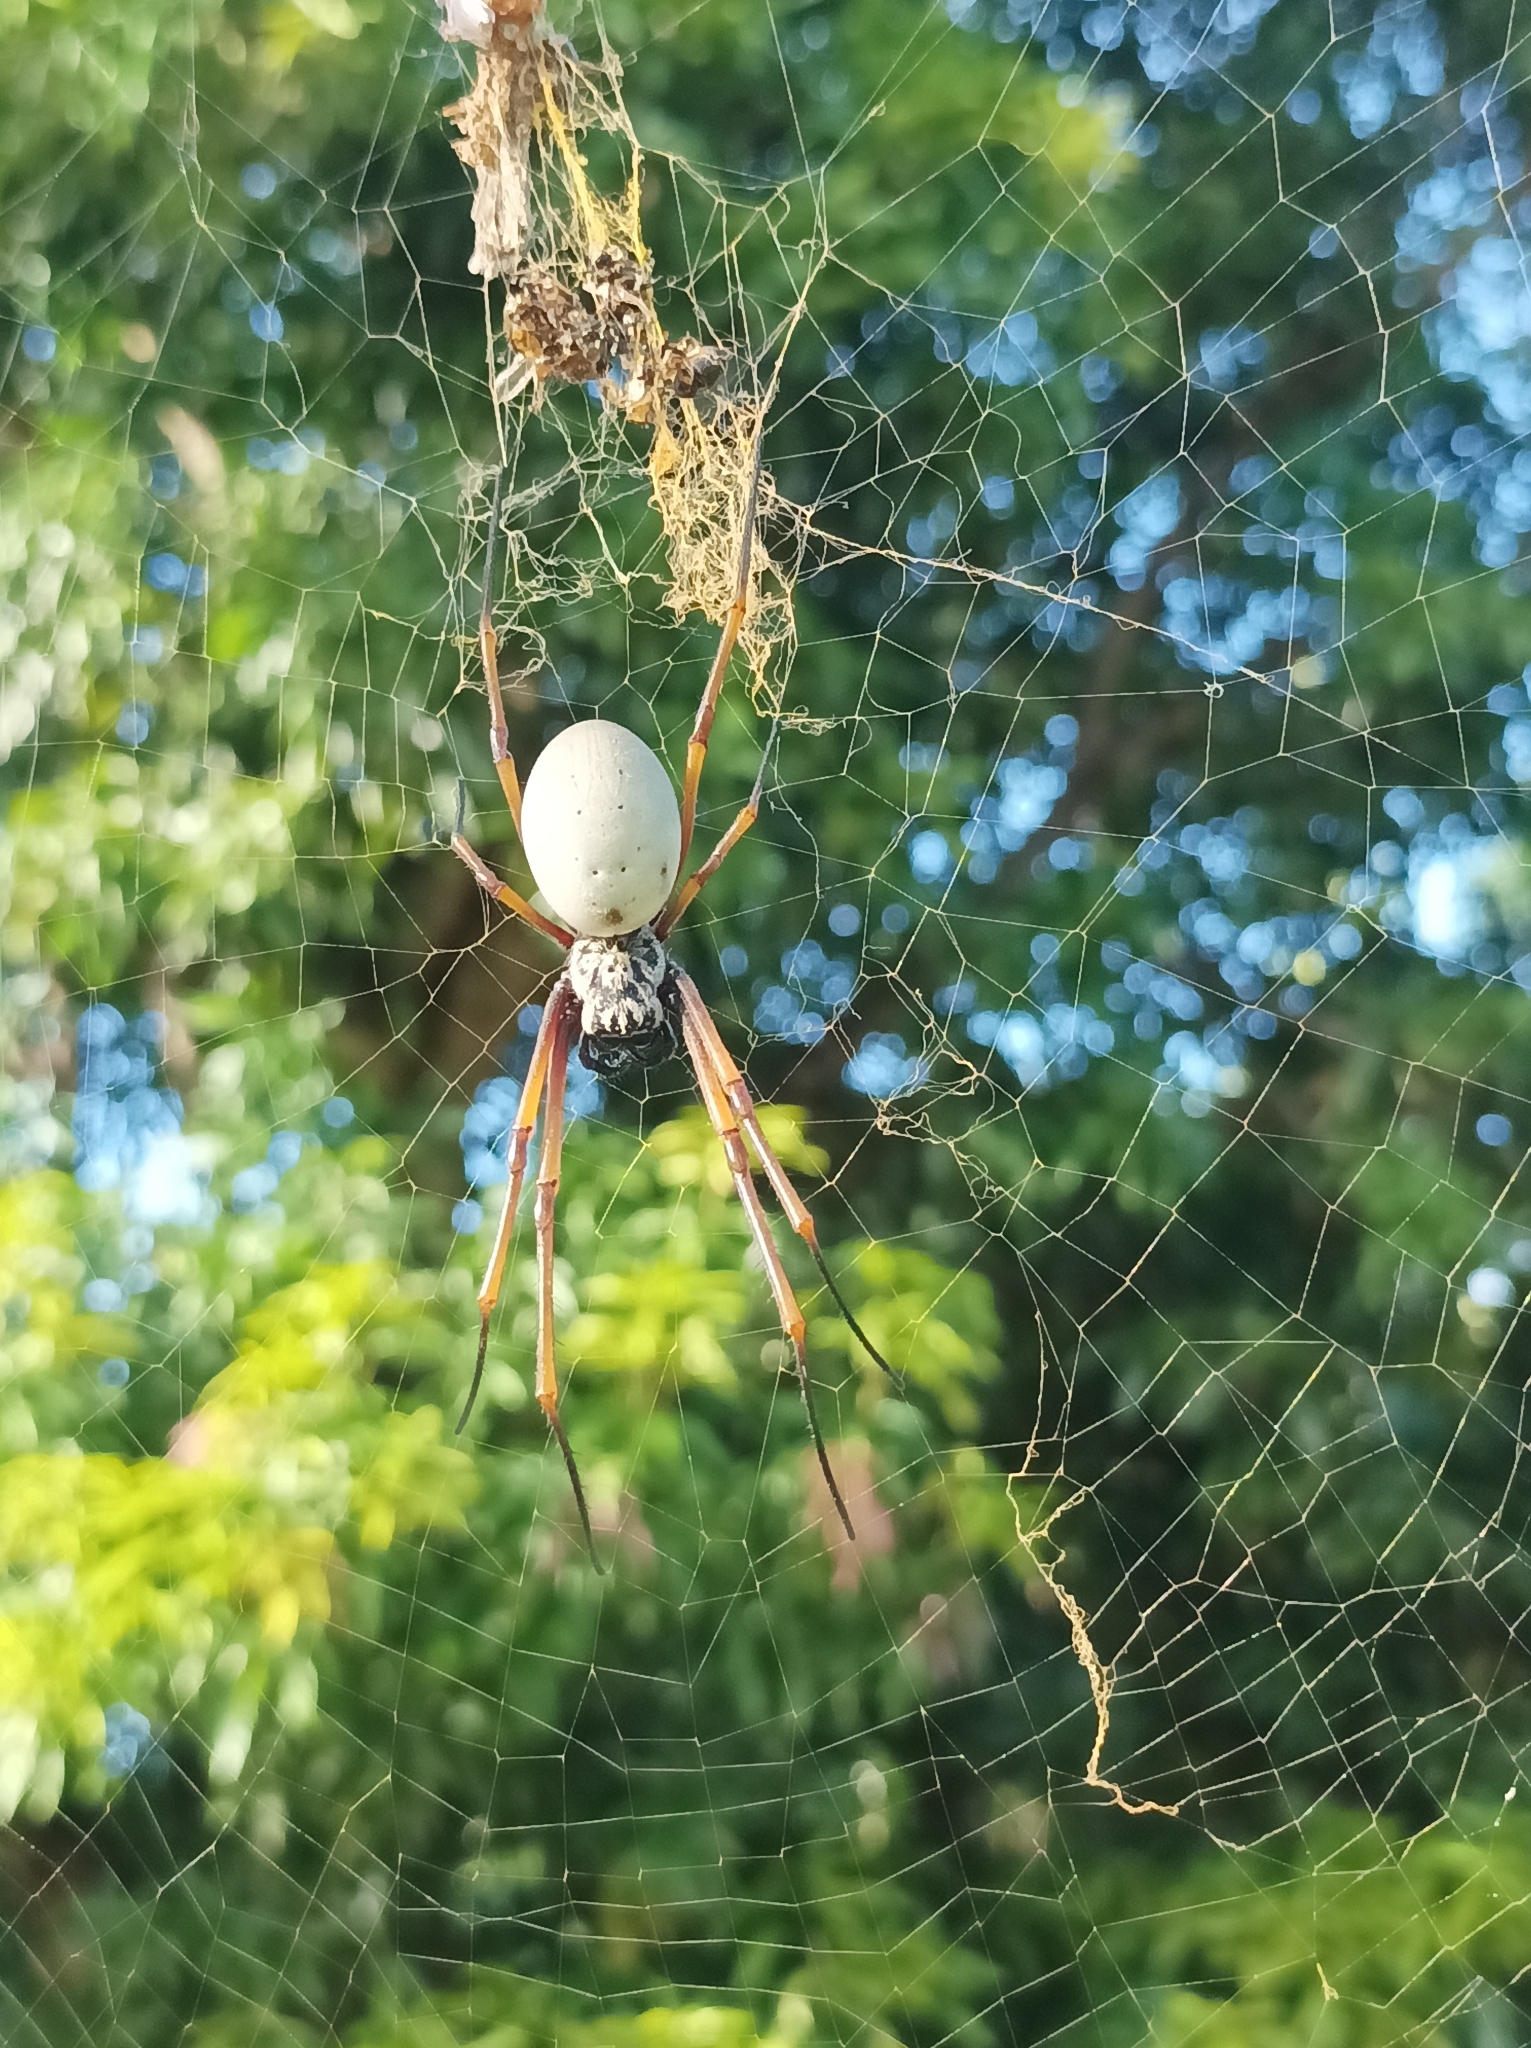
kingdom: Animalia
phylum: Arthropoda
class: Arachnida
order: Araneae
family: Araneidae
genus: Trichonephila
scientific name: Trichonephila plumipes
